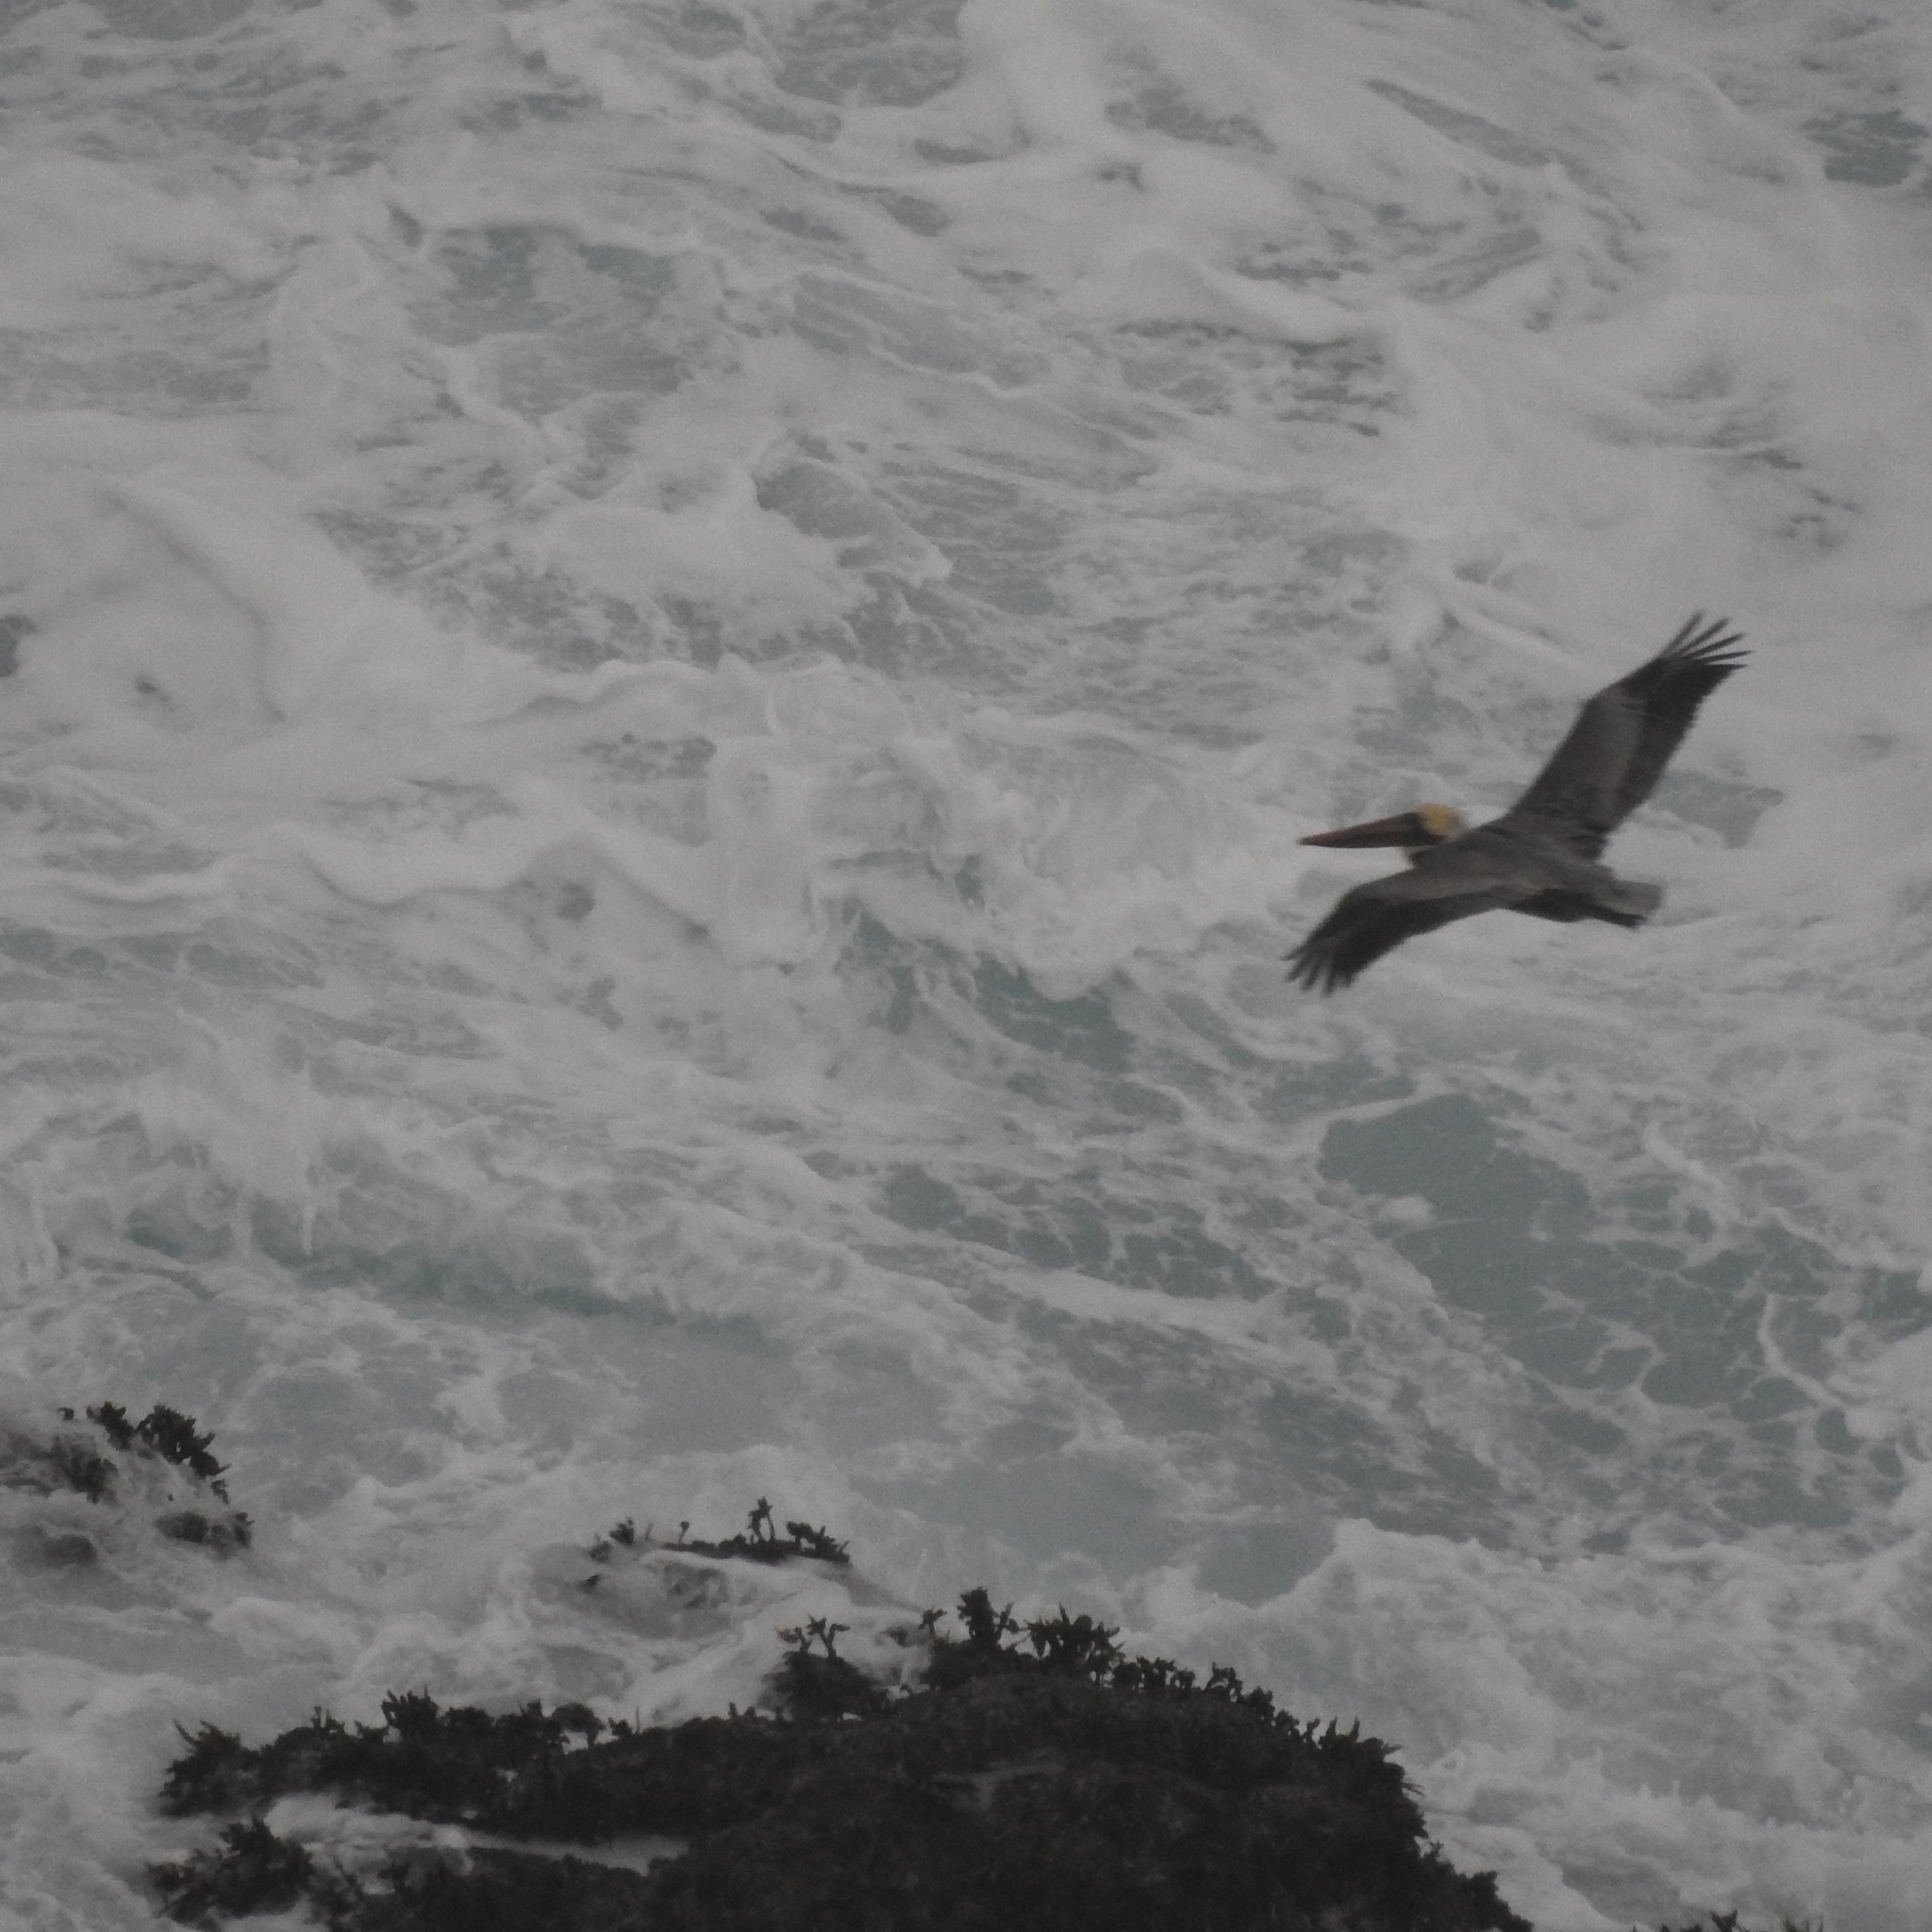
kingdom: Animalia
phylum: Chordata
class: Aves
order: Pelecaniformes
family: Pelecanidae
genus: Pelecanus
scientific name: Pelecanus occidentalis
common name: Brown pelican
